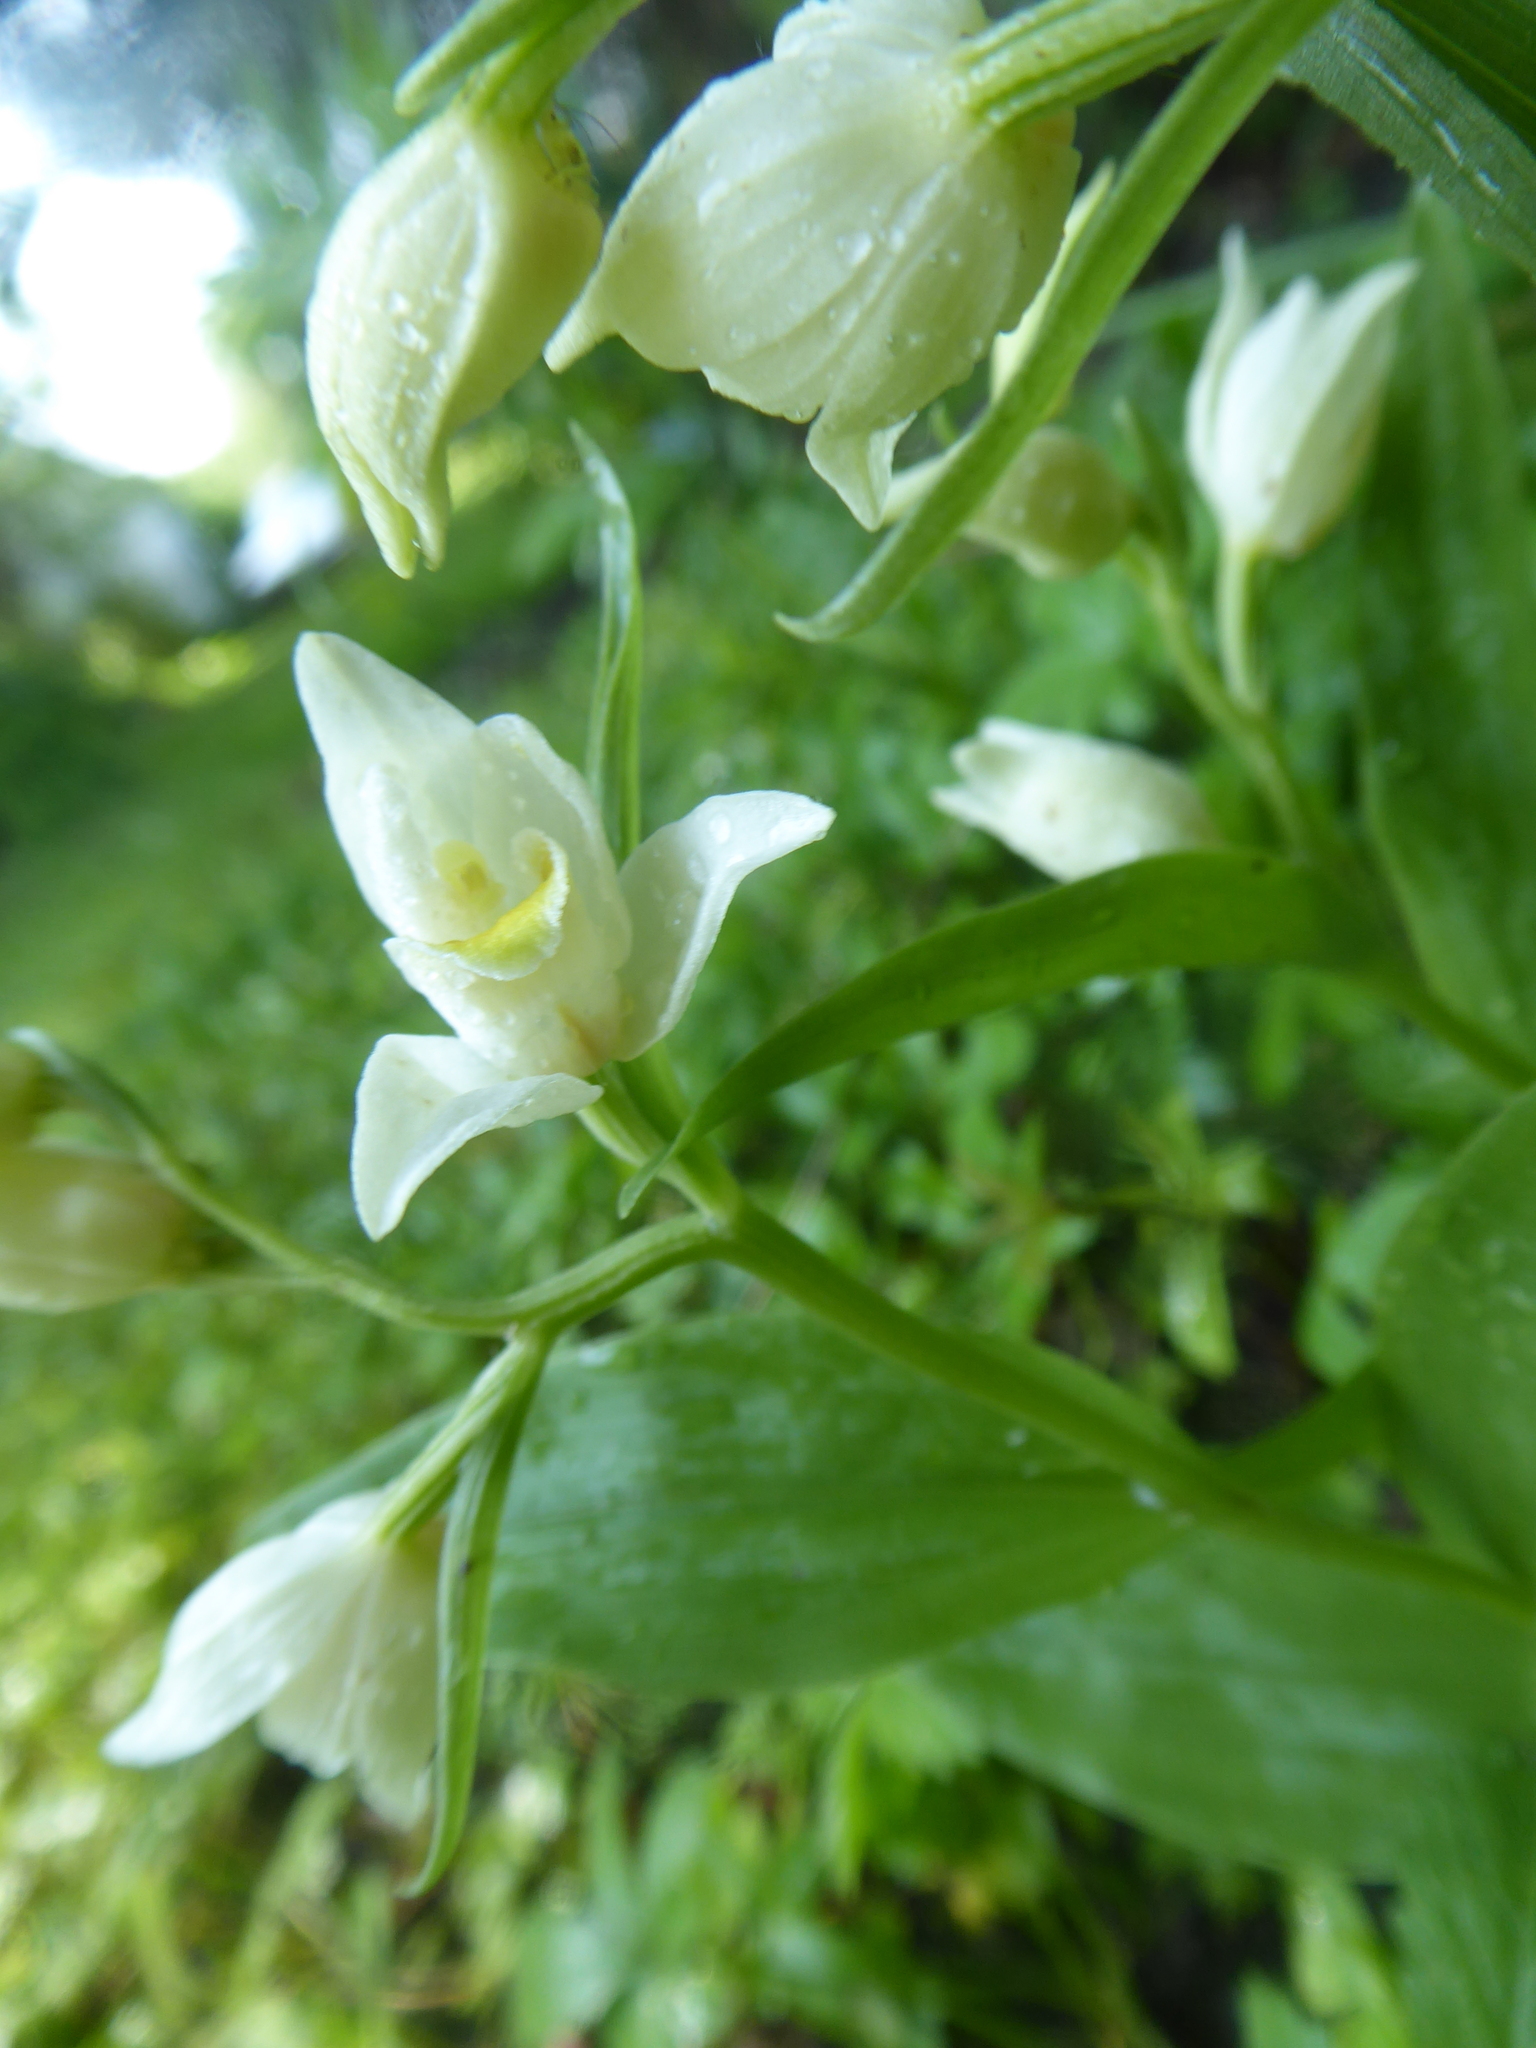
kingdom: Plantae
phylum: Tracheophyta
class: Liliopsida
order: Asparagales
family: Orchidaceae
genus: Cephalanthera
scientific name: Cephalanthera damasonium
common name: White helleborine
